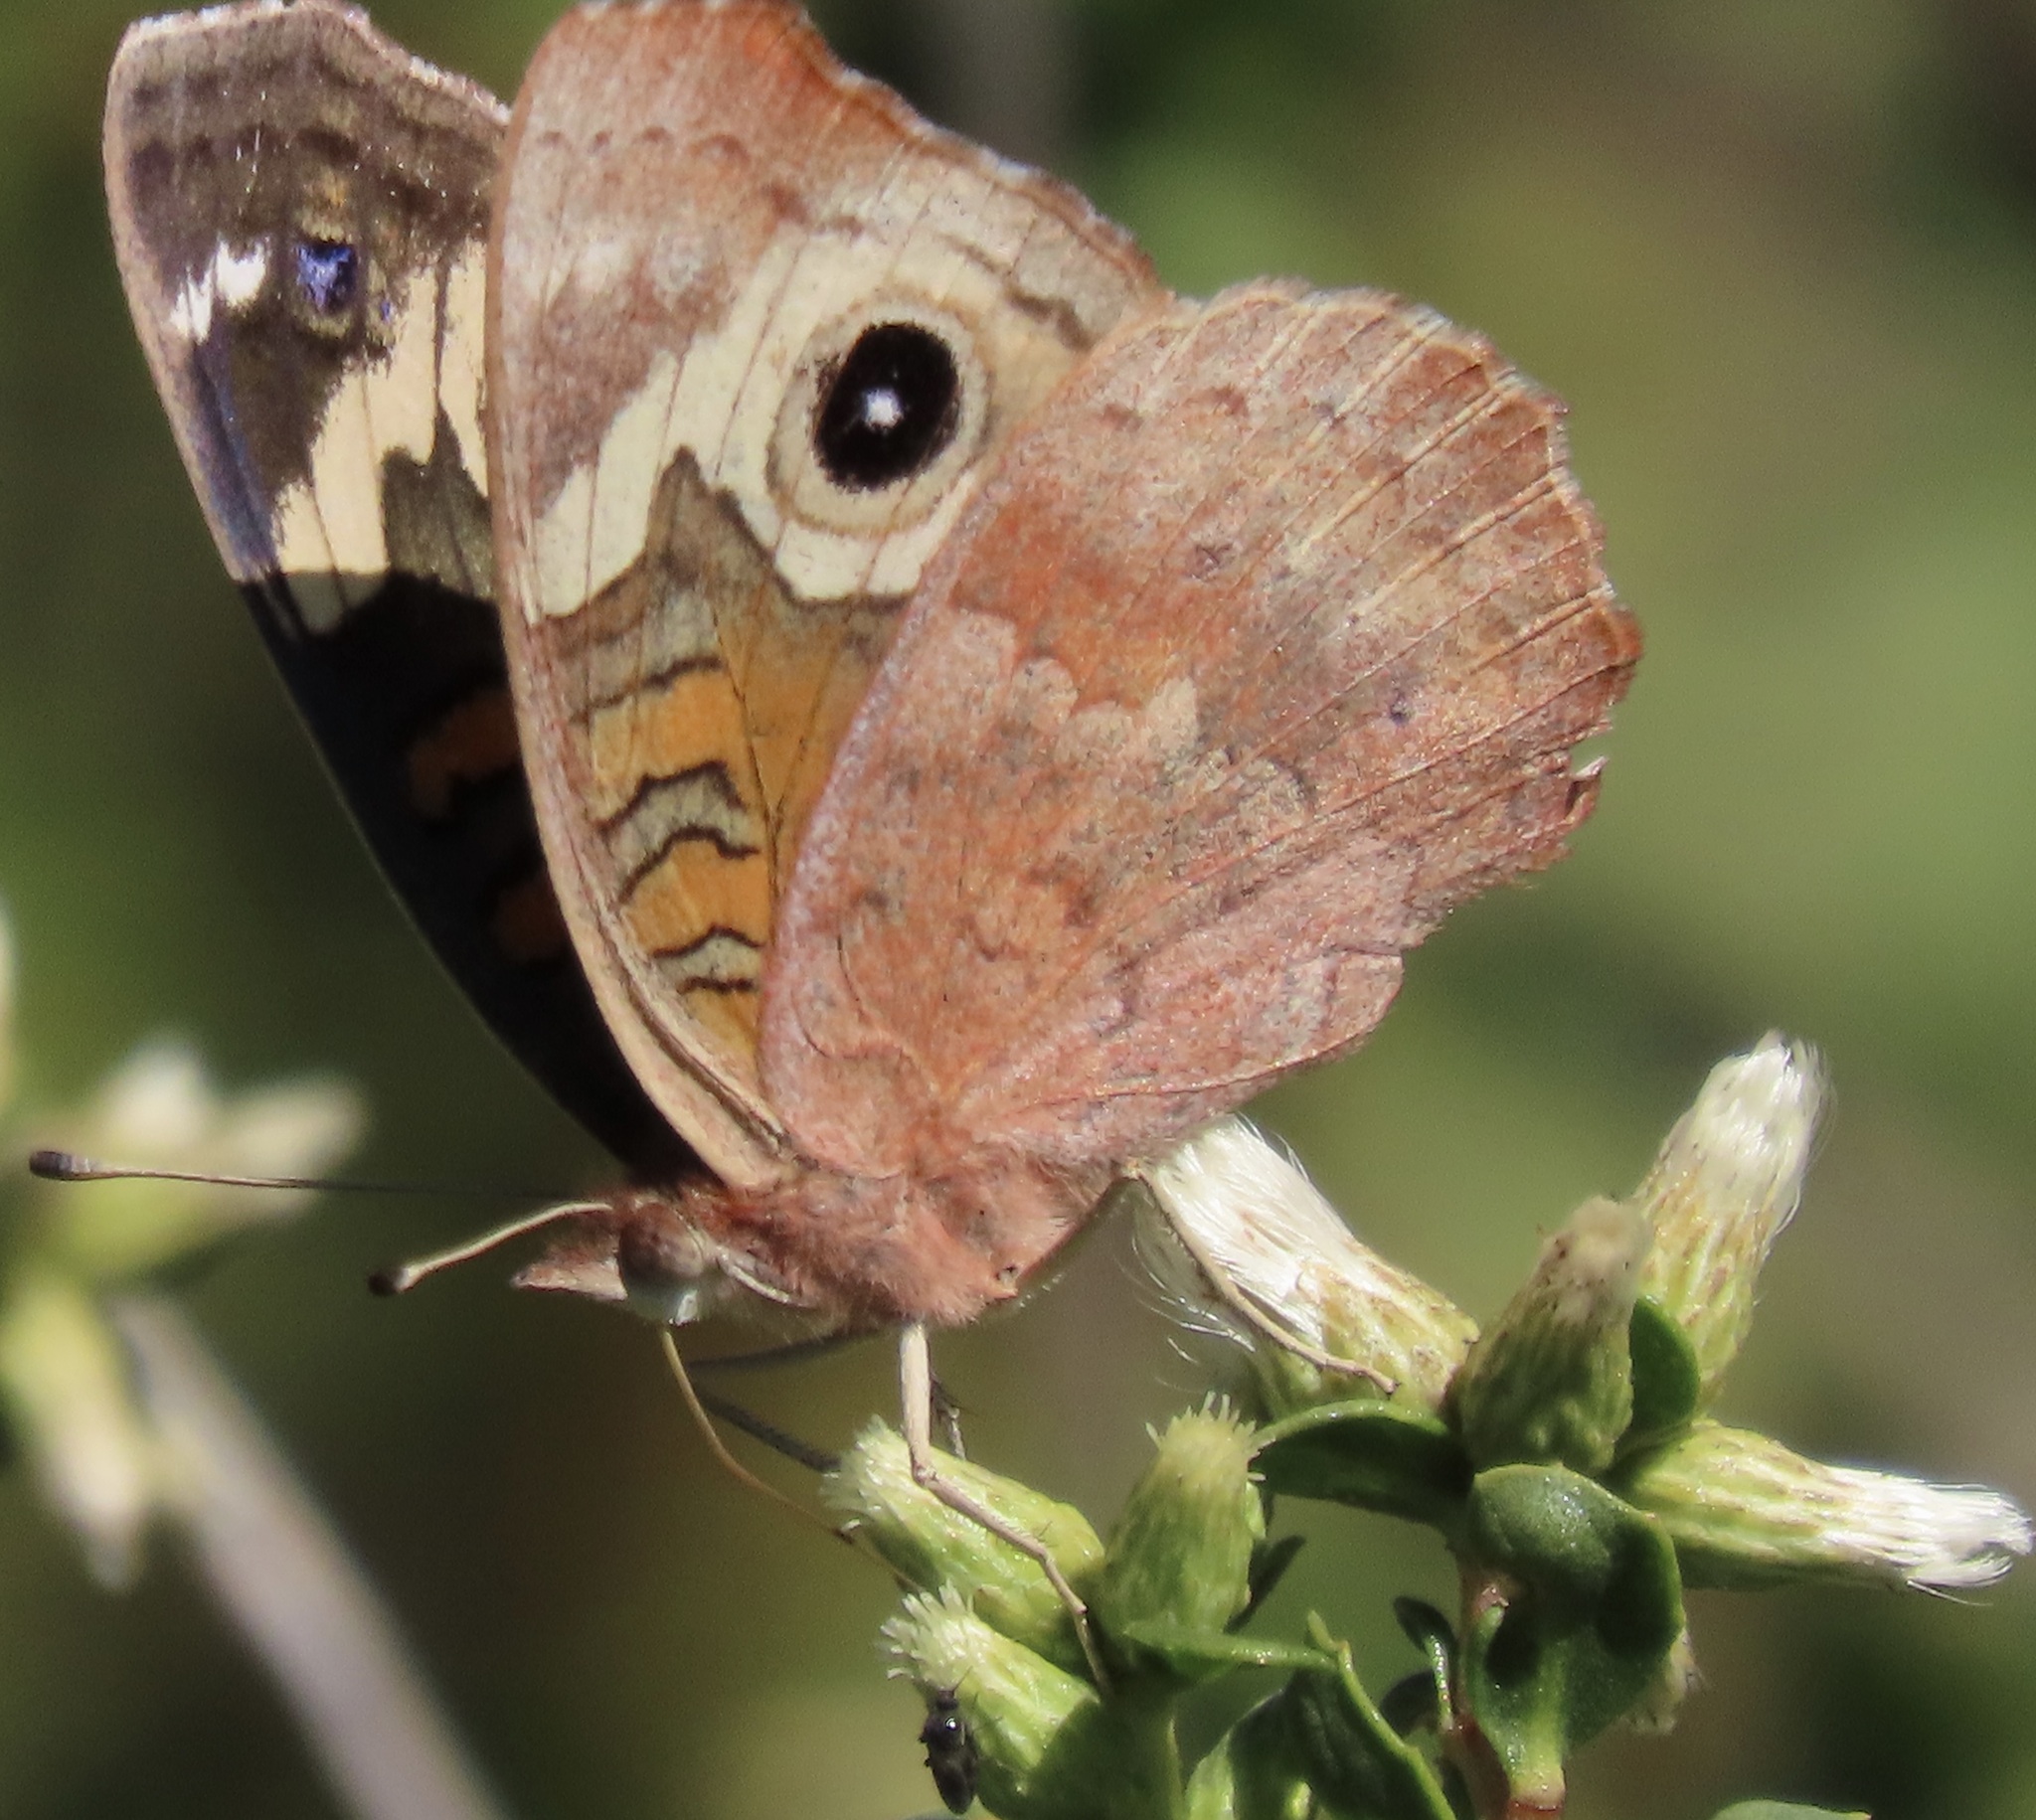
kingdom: Animalia
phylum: Arthropoda
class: Insecta
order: Lepidoptera
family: Nymphalidae
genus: Junonia
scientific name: Junonia grisea
